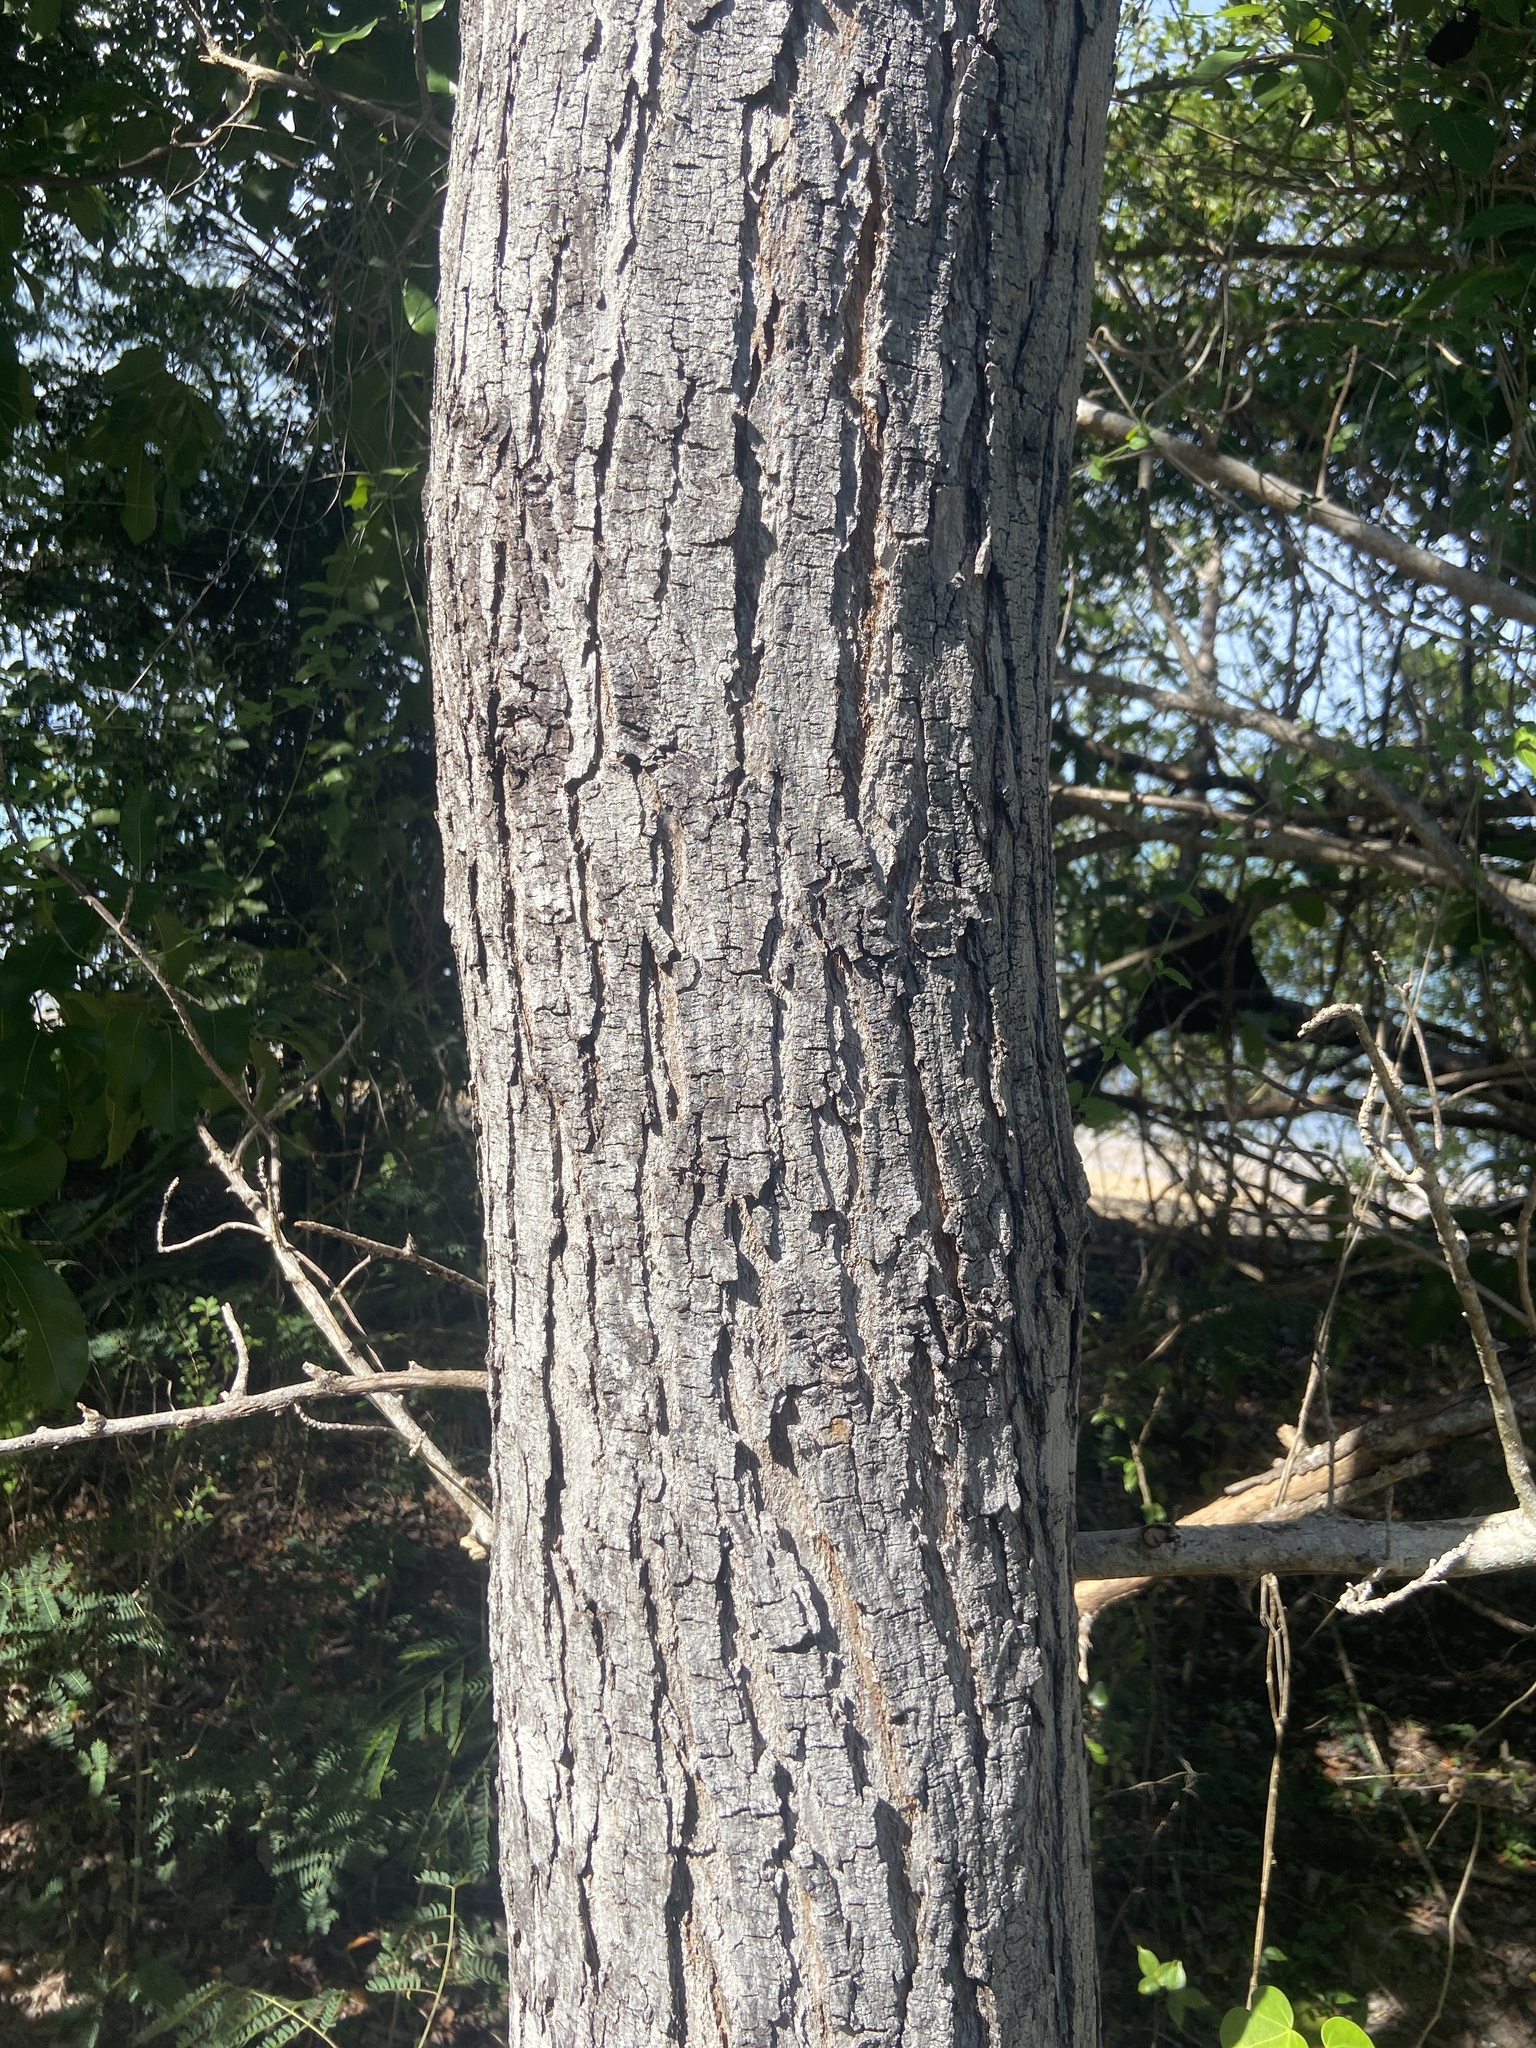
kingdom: Plantae
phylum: Tracheophyta
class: Magnoliopsida
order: Sapindales
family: Meliaceae
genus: Swietenia
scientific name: Swietenia mahagoni
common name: West indian mahogany
